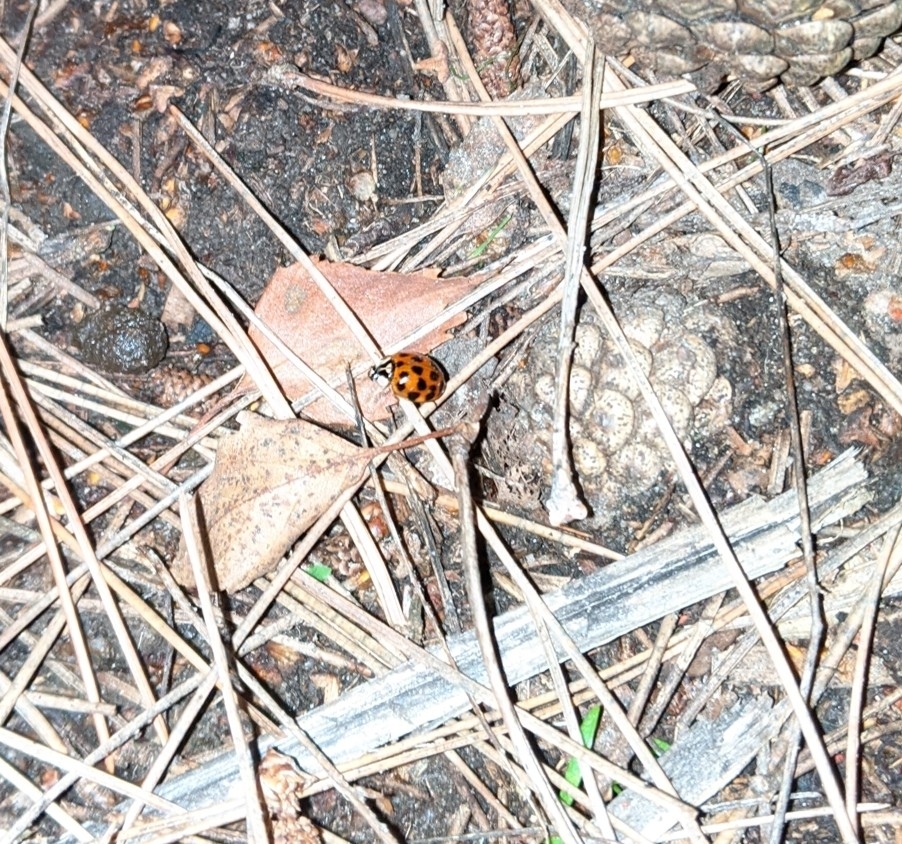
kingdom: Animalia
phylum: Arthropoda
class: Insecta
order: Coleoptera
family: Coccinellidae
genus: Harmonia
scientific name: Harmonia axyridis
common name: Harlequin ladybird
